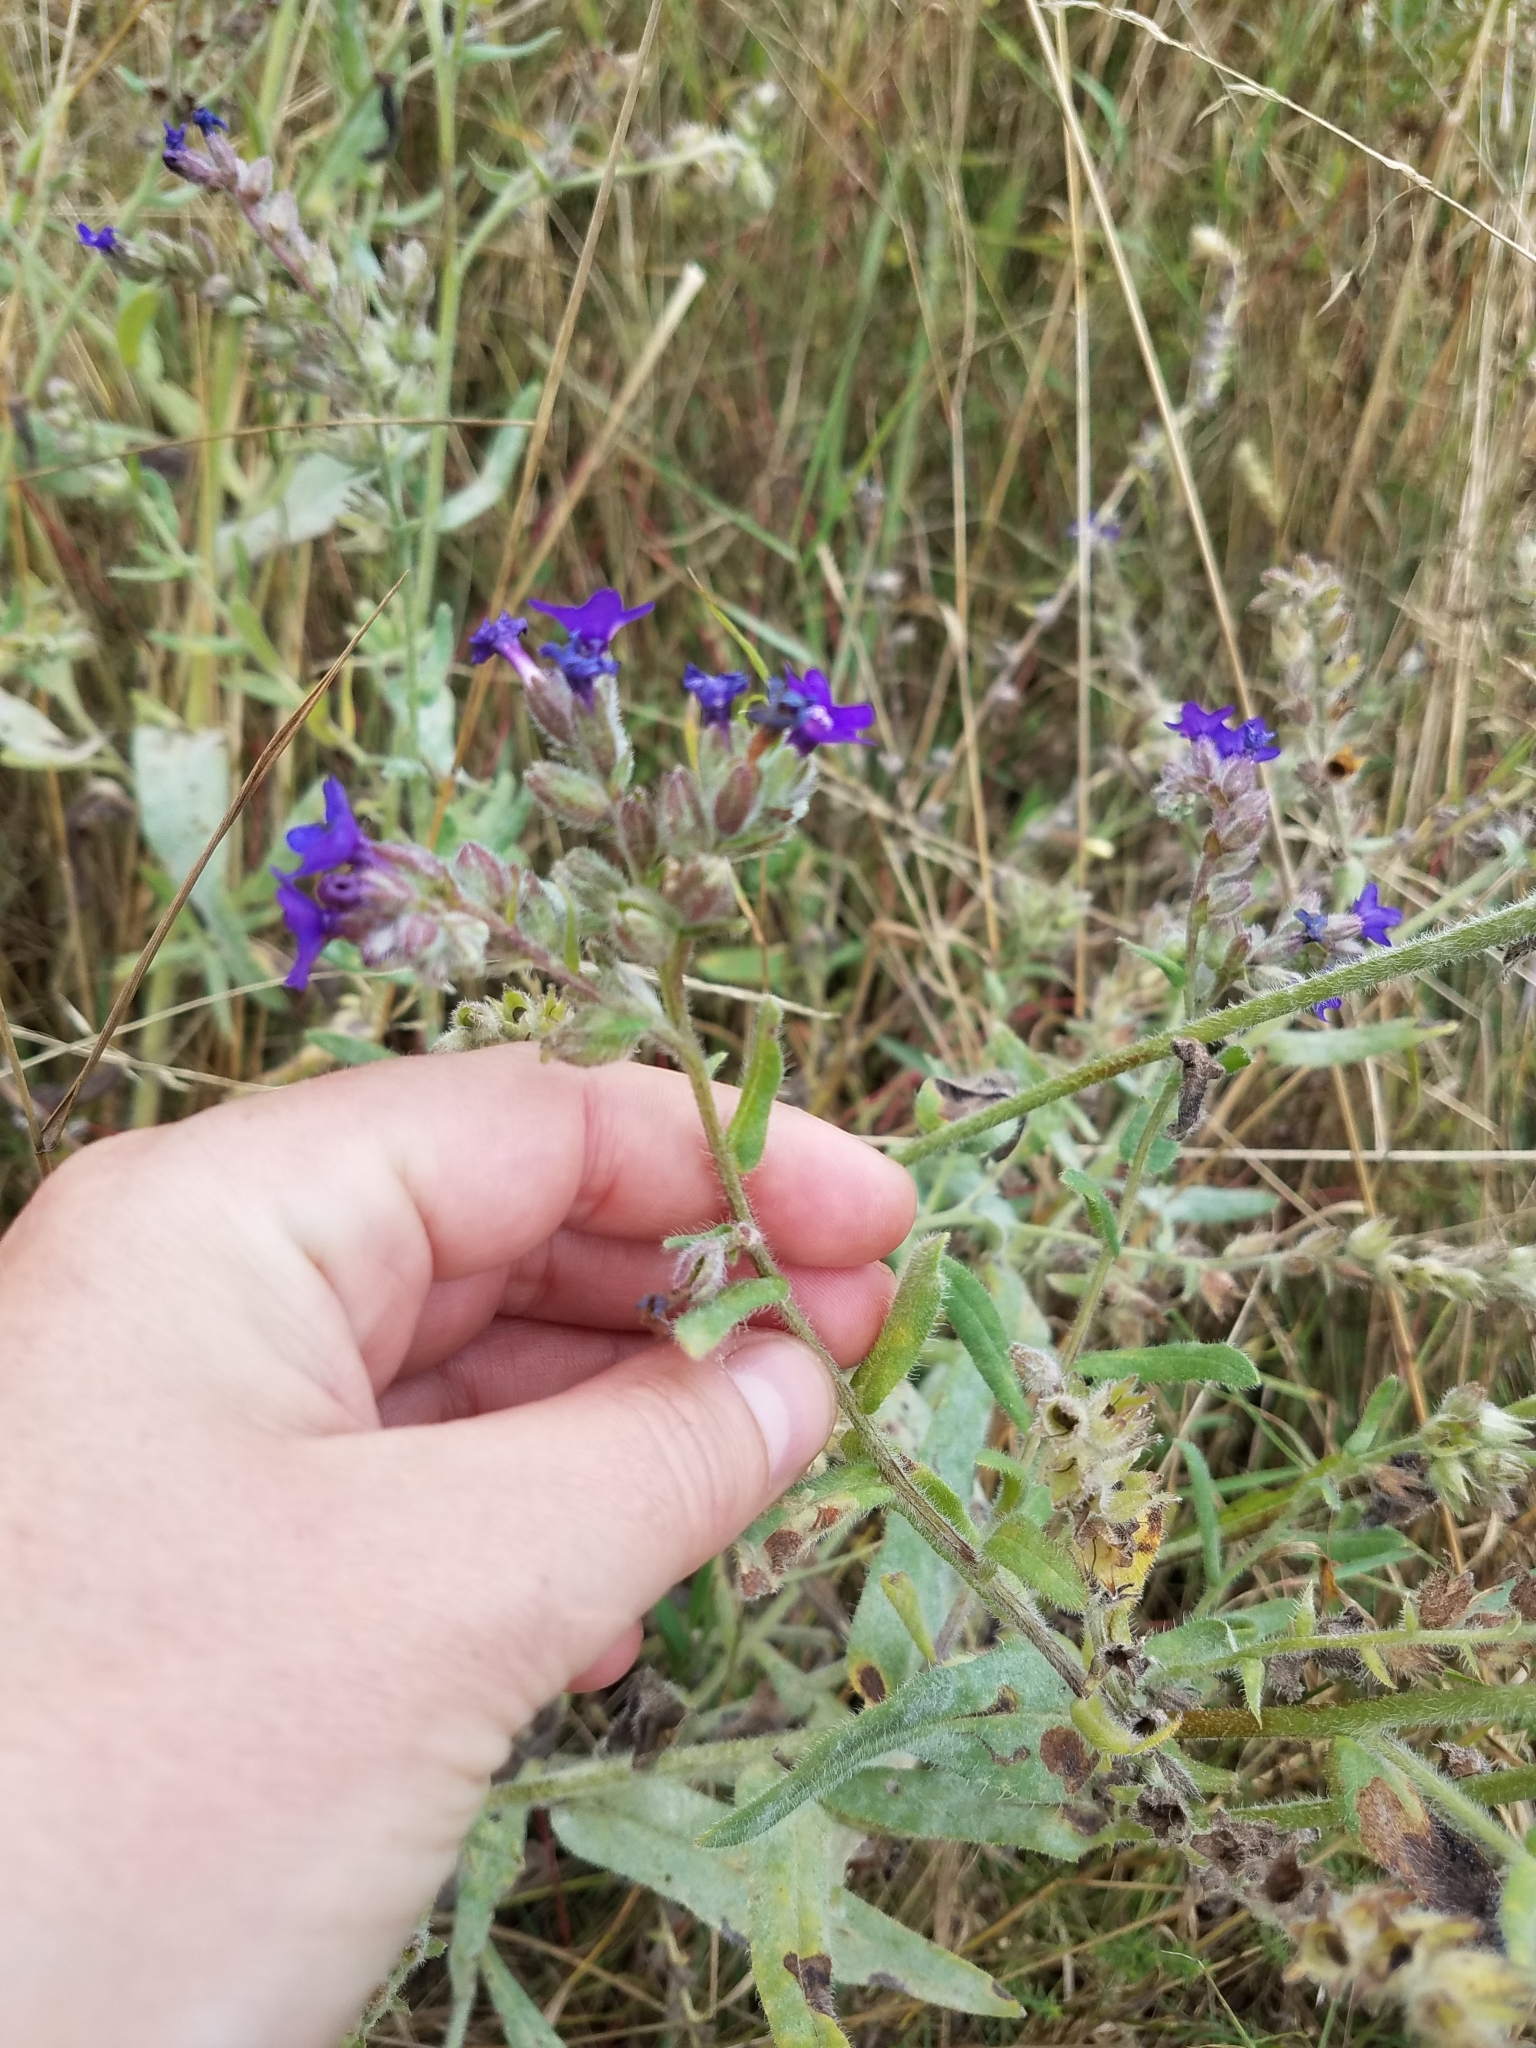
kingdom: Plantae
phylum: Tracheophyta
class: Magnoliopsida
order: Boraginales
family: Boraginaceae
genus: Anchusa
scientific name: Anchusa officinalis
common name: Alkanet
